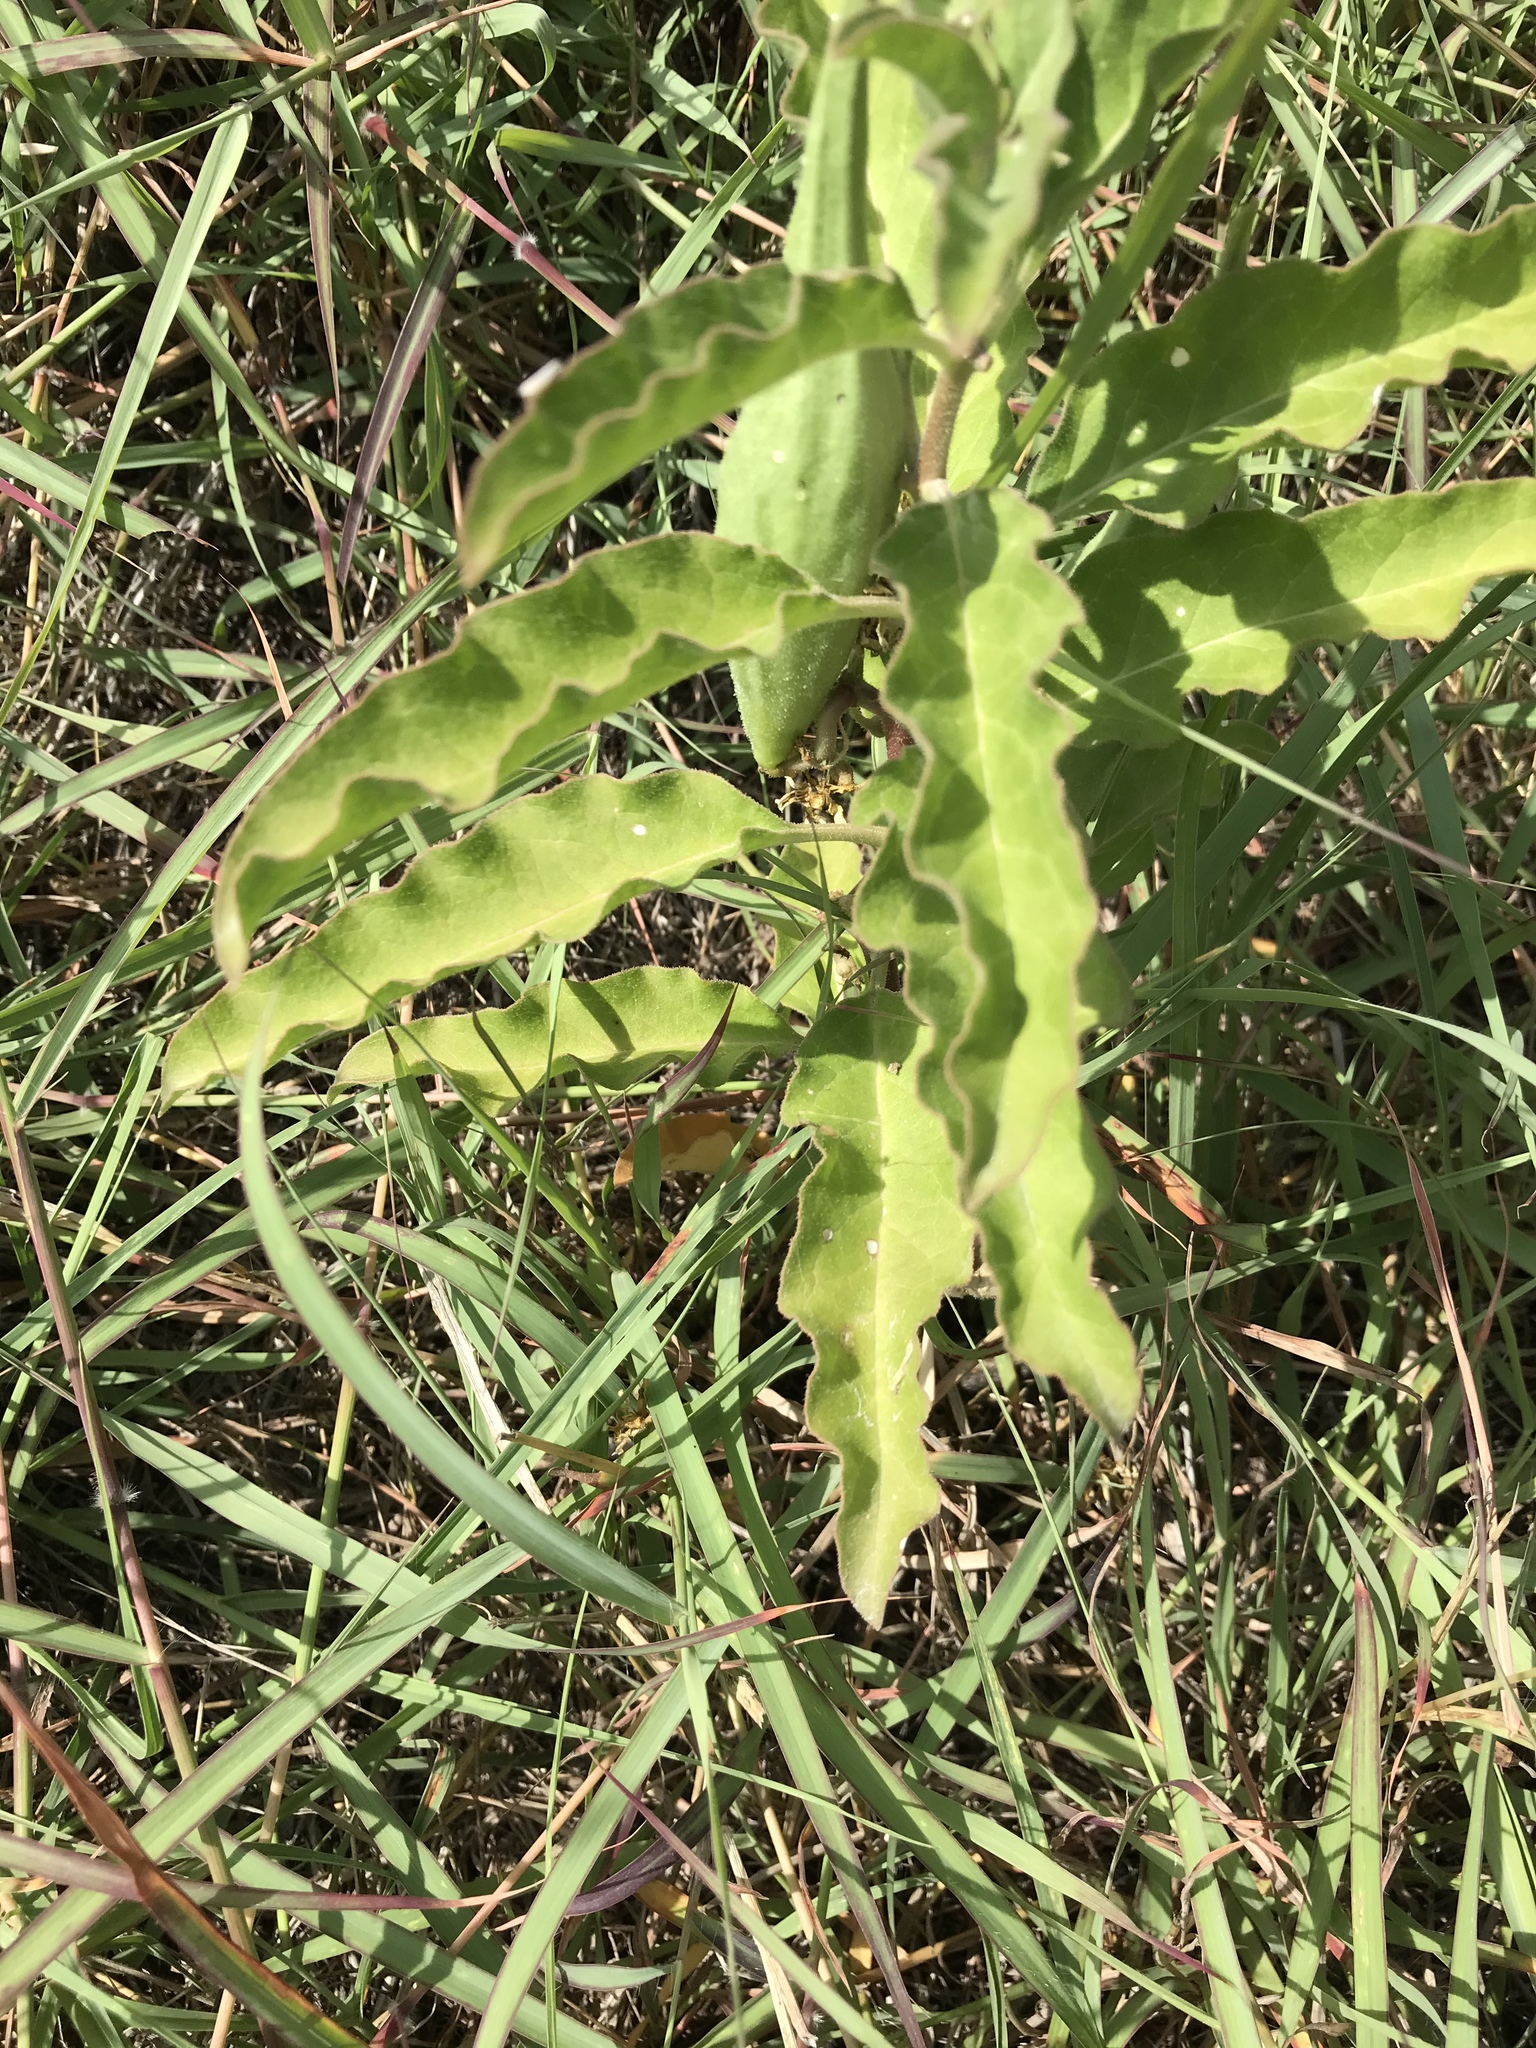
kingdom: Plantae
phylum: Tracheophyta
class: Magnoliopsida
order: Gentianales
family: Apocynaceae
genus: Asclepias
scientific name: Asclepias oenotheroides
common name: Zizotes milkweed
